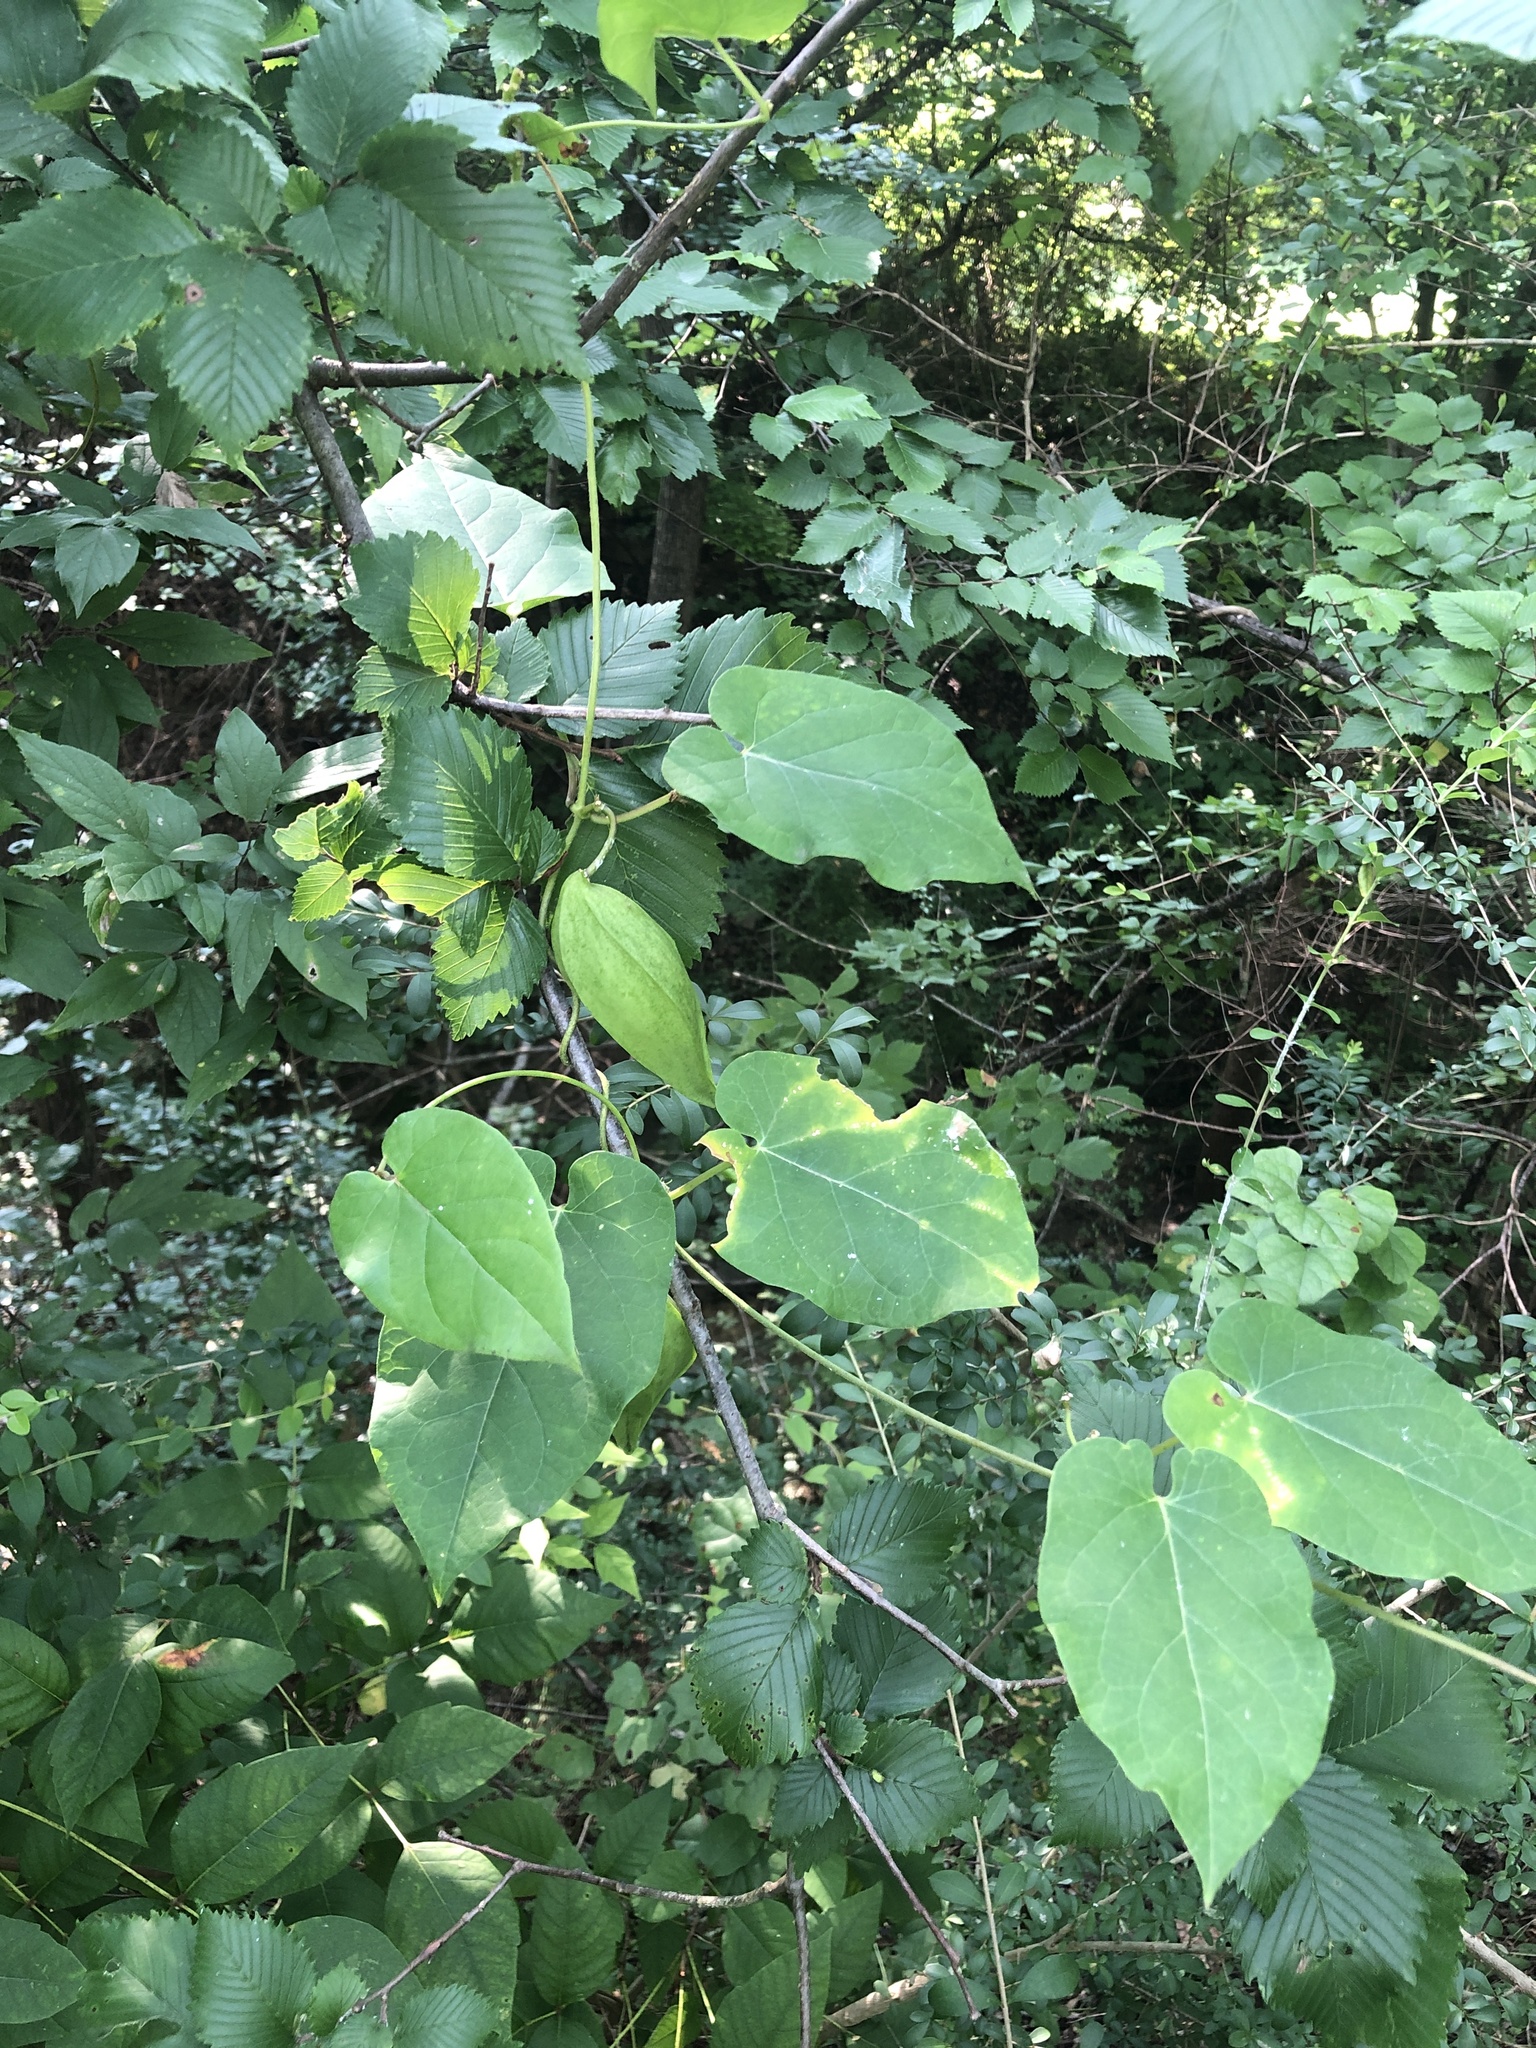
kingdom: Plantae
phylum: Tracheophyta
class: Magnoliopsida
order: Gentianales
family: Apocynaceae
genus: Gonolobus
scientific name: Gonolobus suberosus
